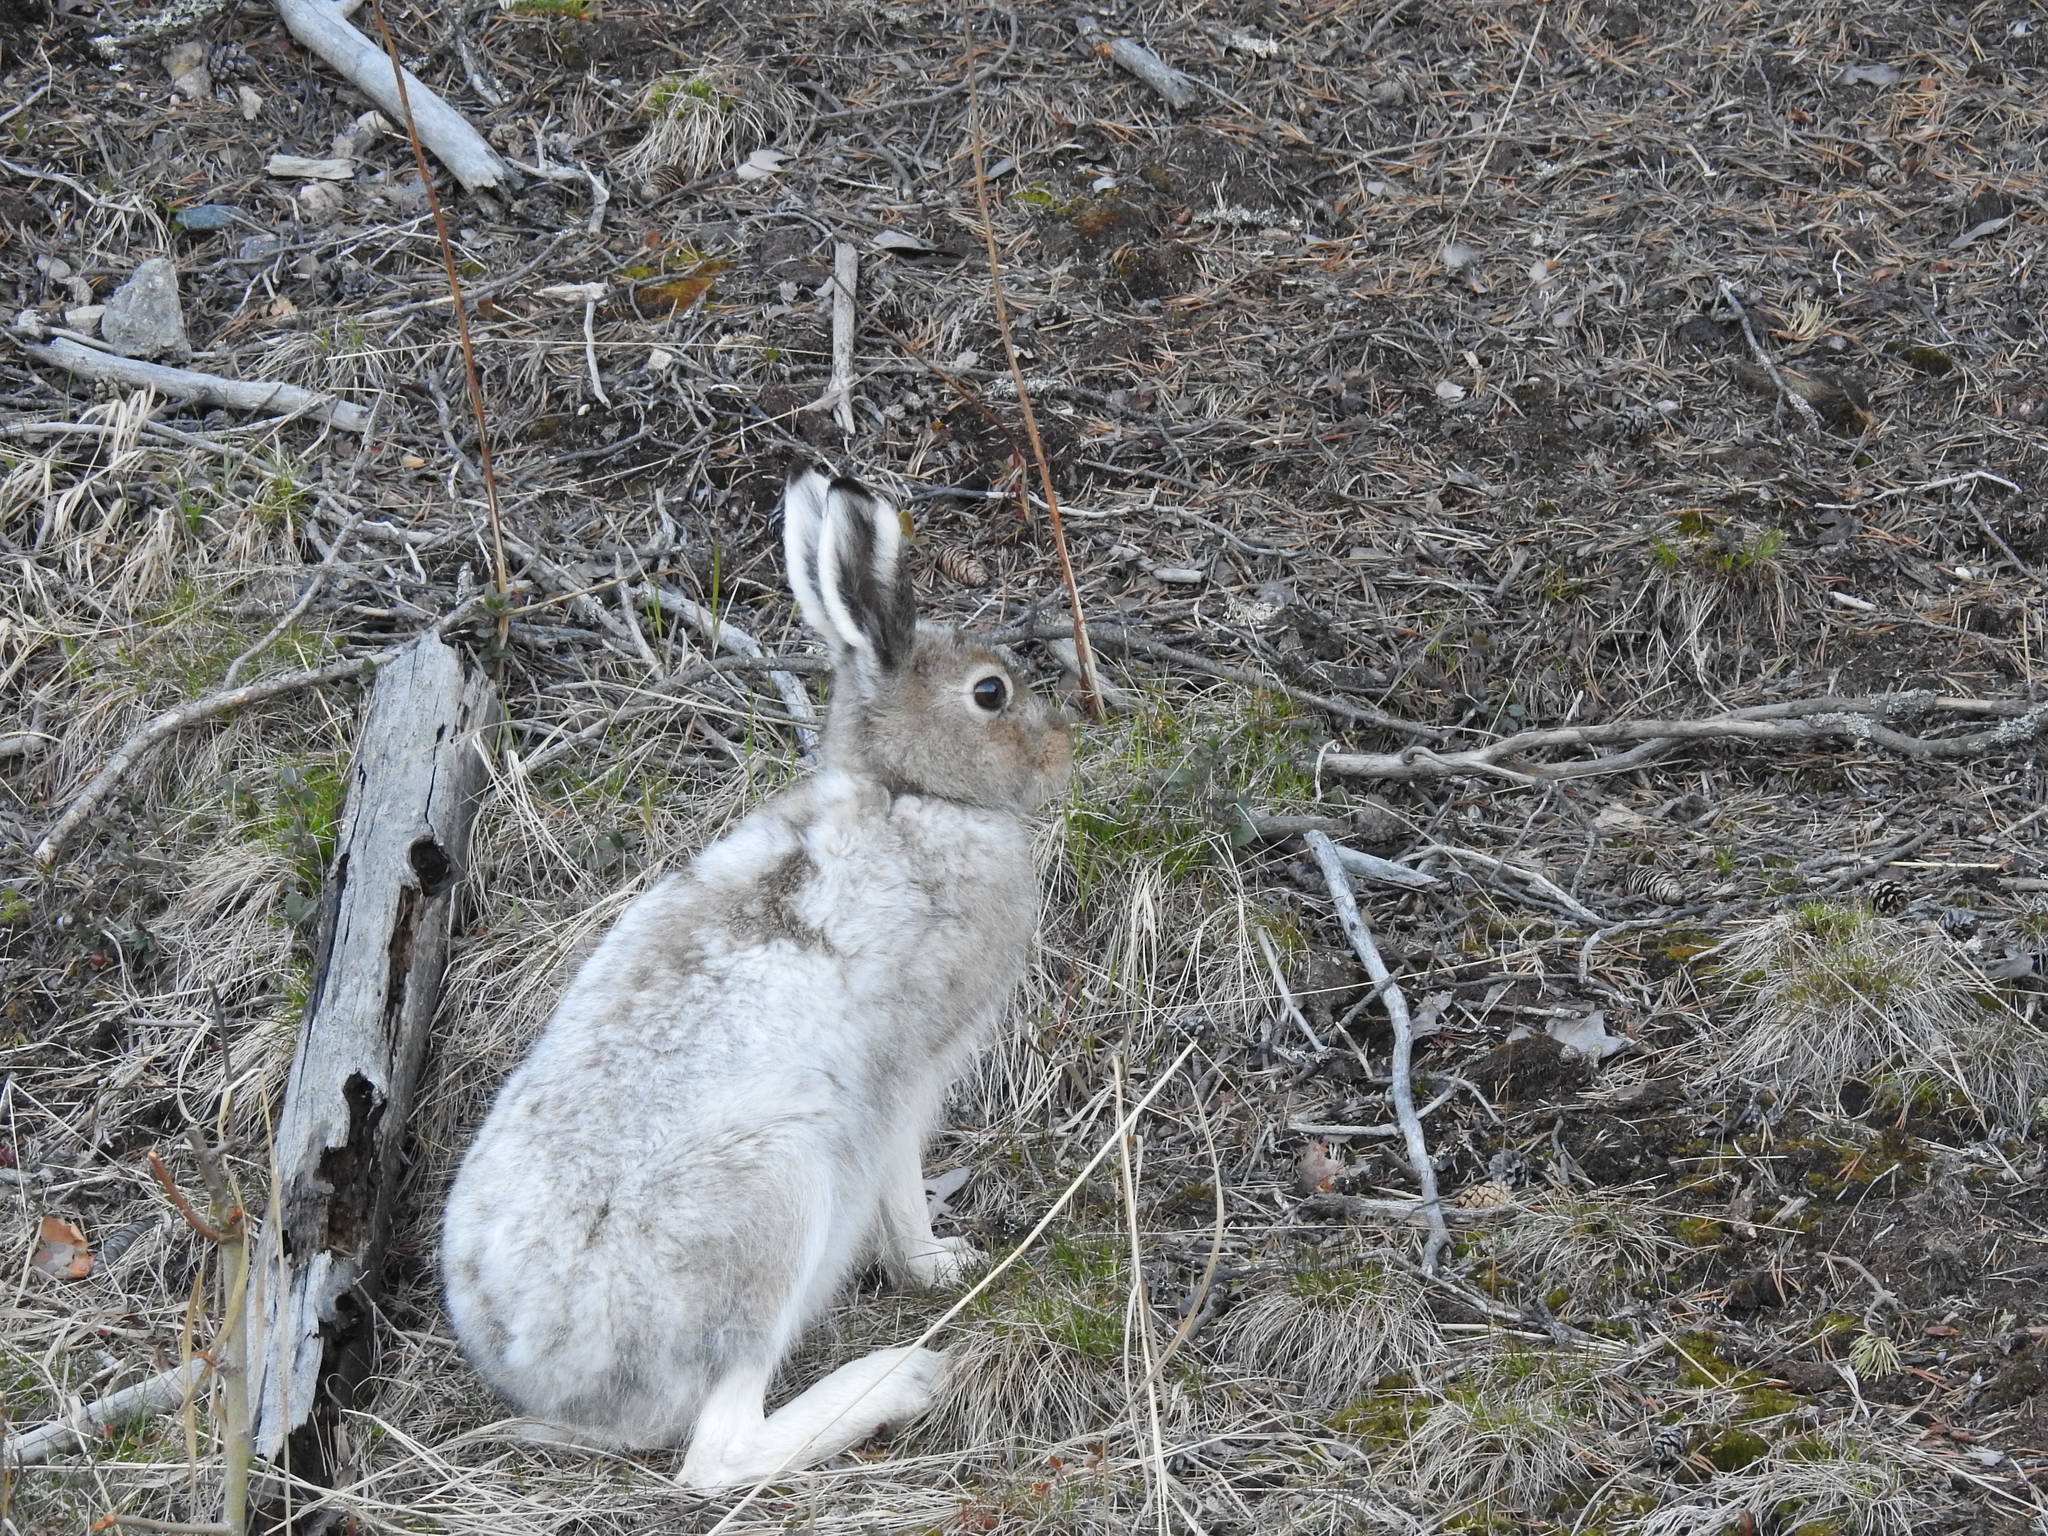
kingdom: Animalia
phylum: Chordata
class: Mammalia
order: Lagomorpha
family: Leporidae
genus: Lepus
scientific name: Lepus timidus
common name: Mountain hare
